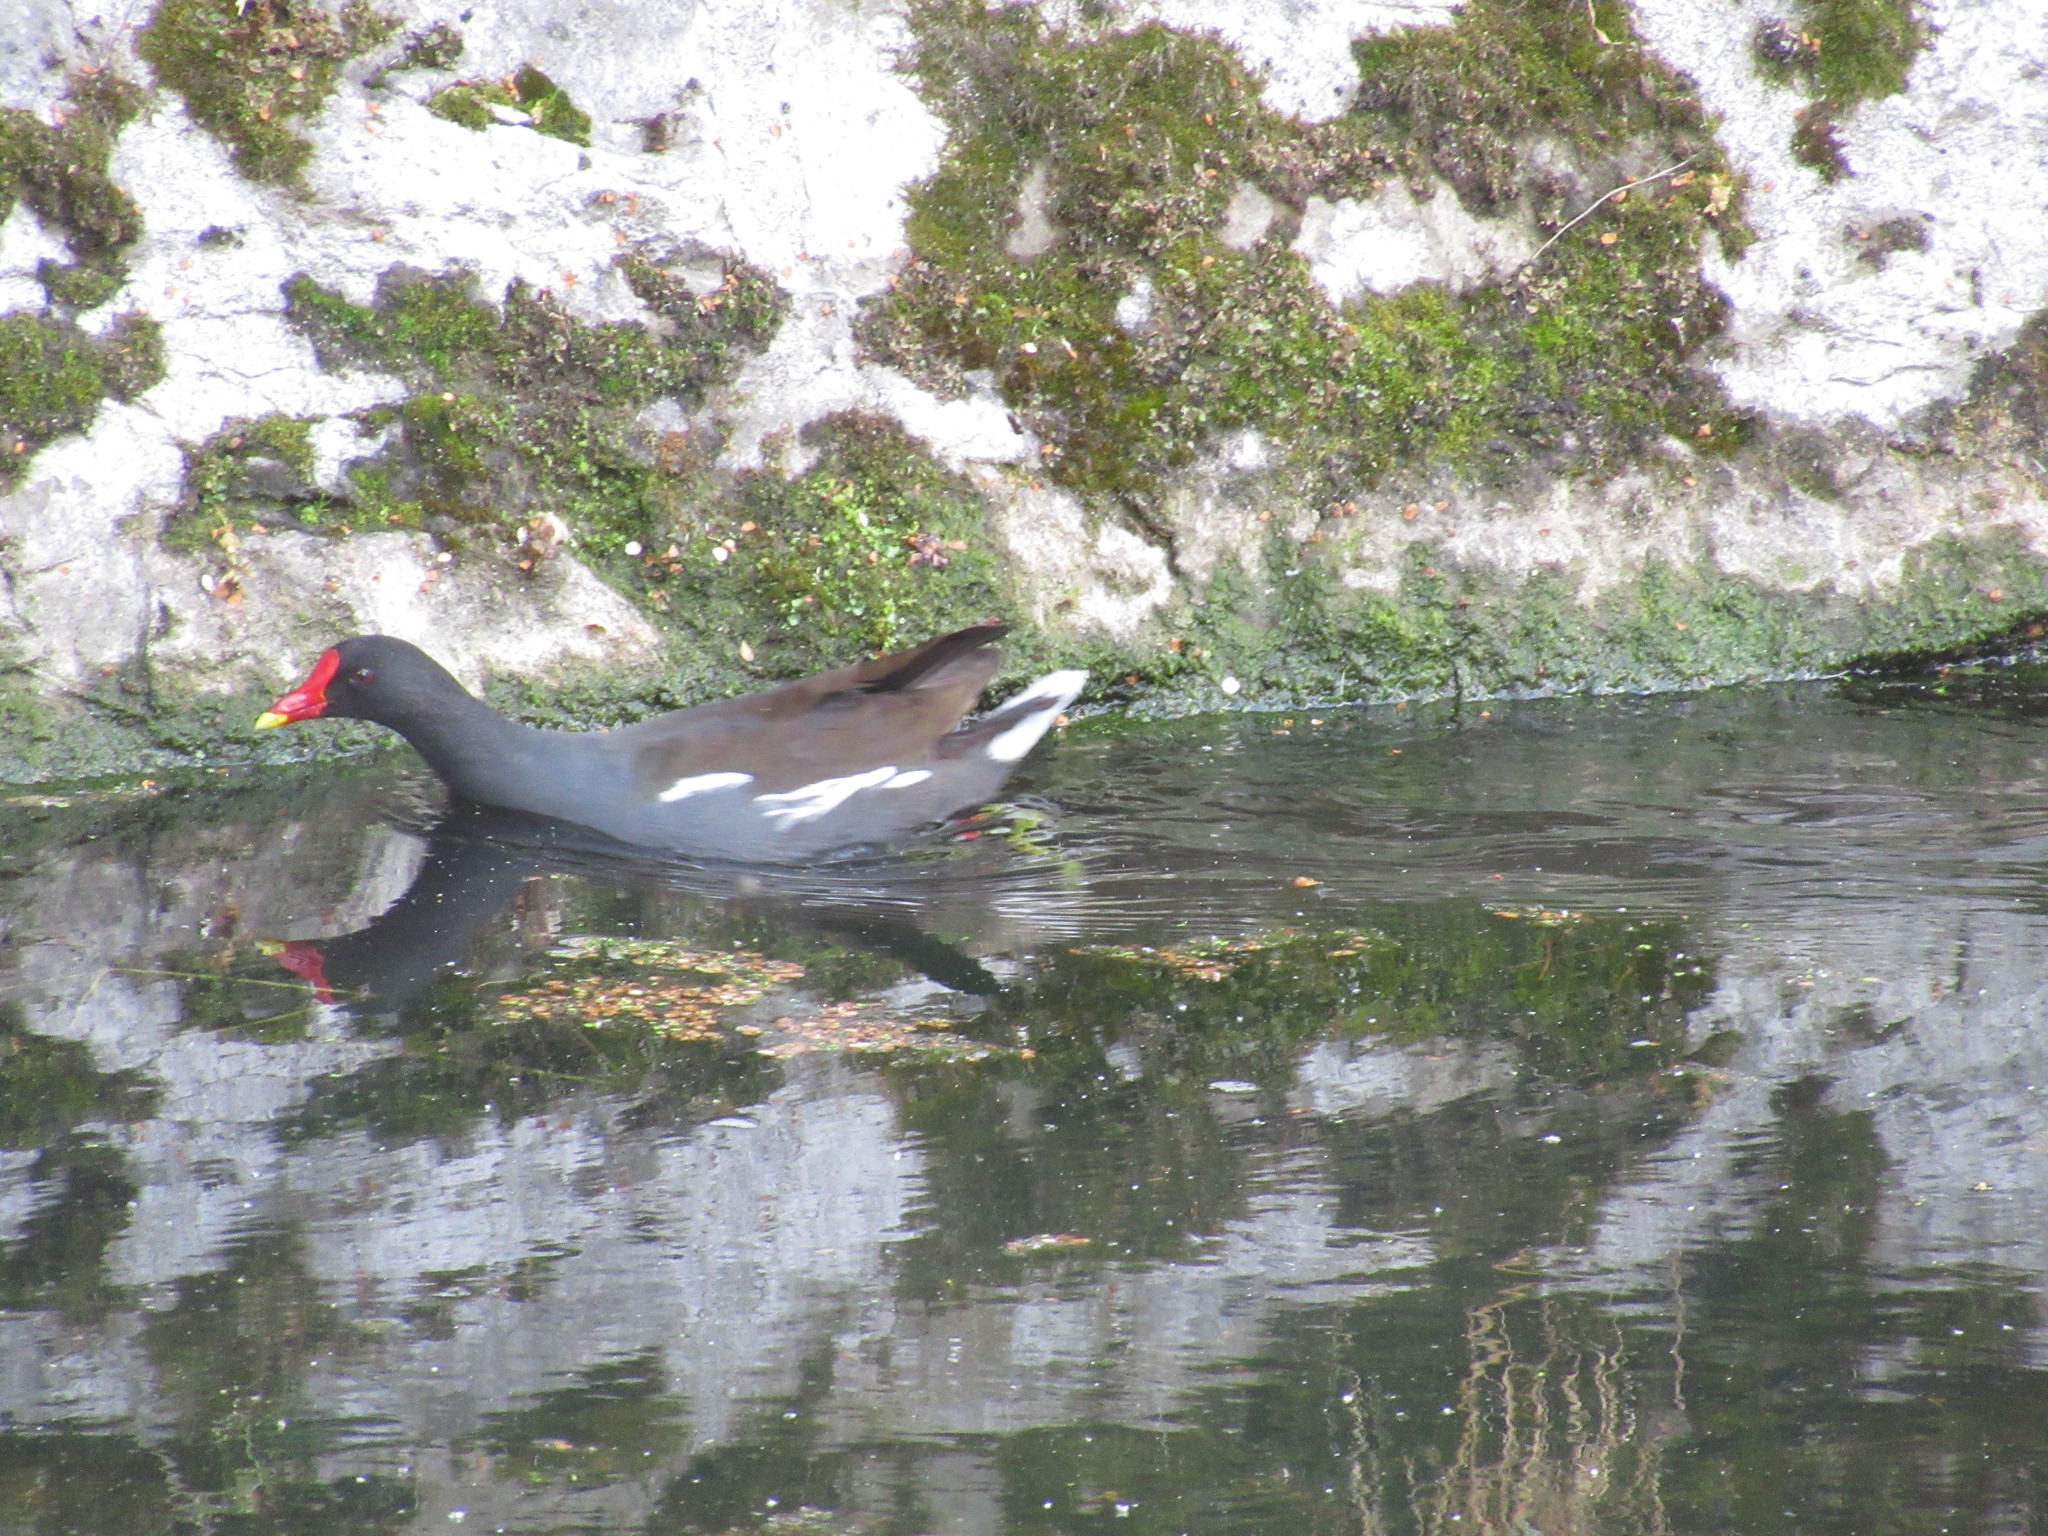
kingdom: Animalia
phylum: Chordata
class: Aves
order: Gruiformes
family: Rallidae
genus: Gallinula
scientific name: Gallinula chloropus
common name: Common moorhen
